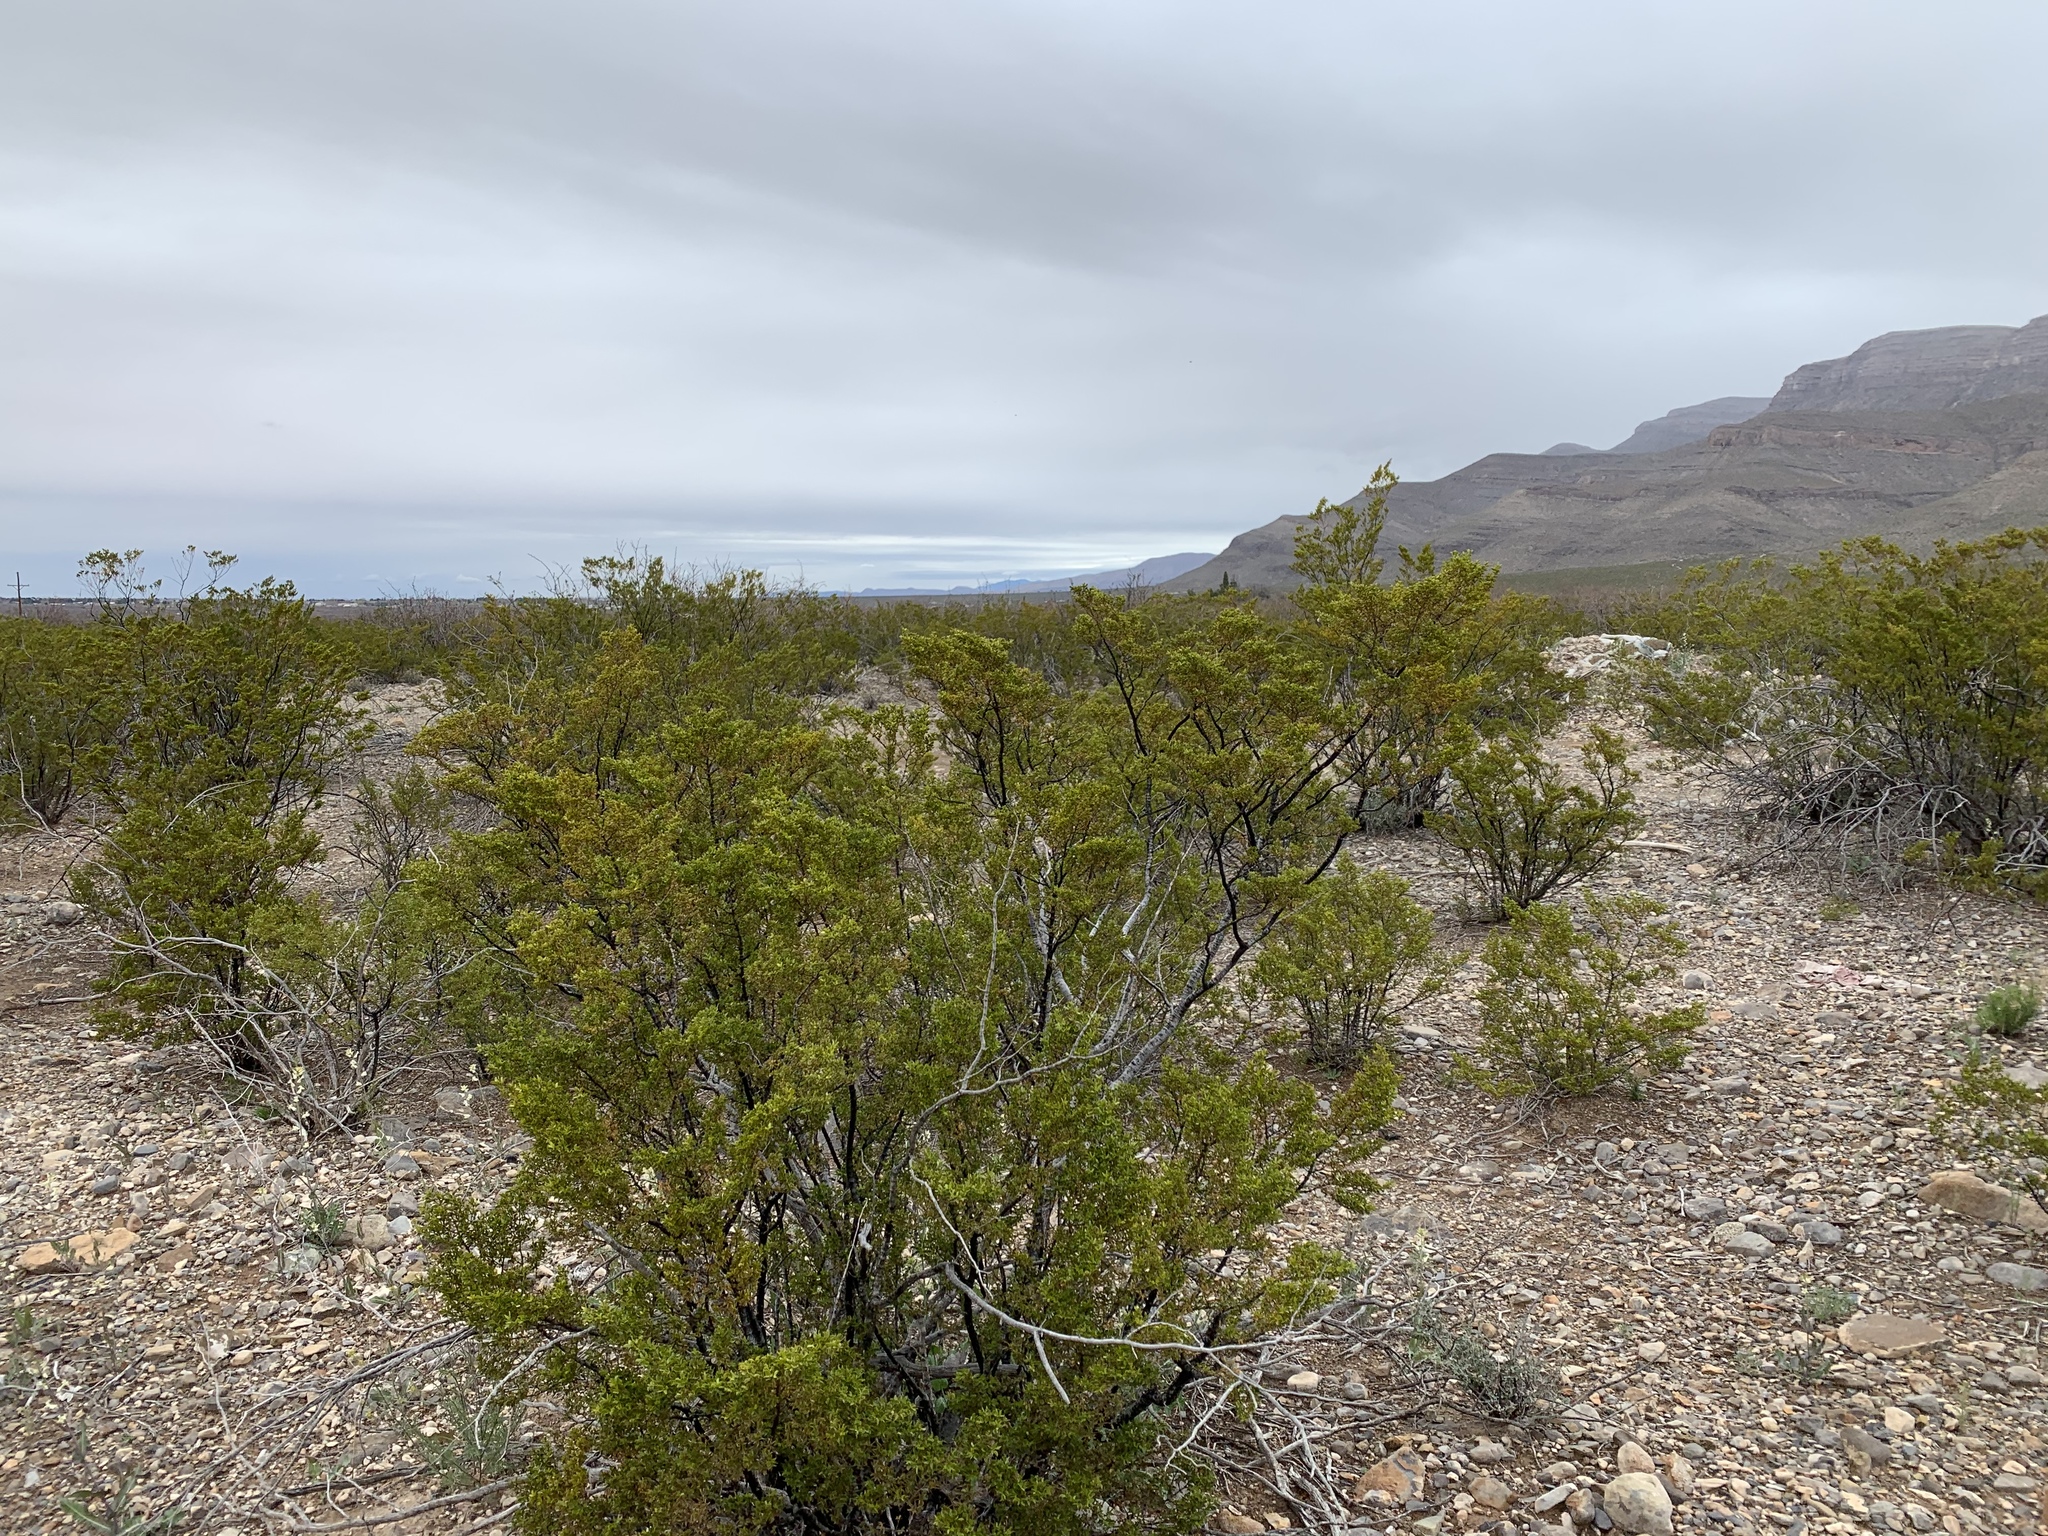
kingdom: Plantae
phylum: Tracheophyta
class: Magnoliopsida
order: Zygophyllales
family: Zygophyllaceae
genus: Larrea
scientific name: Larrea tridentata
